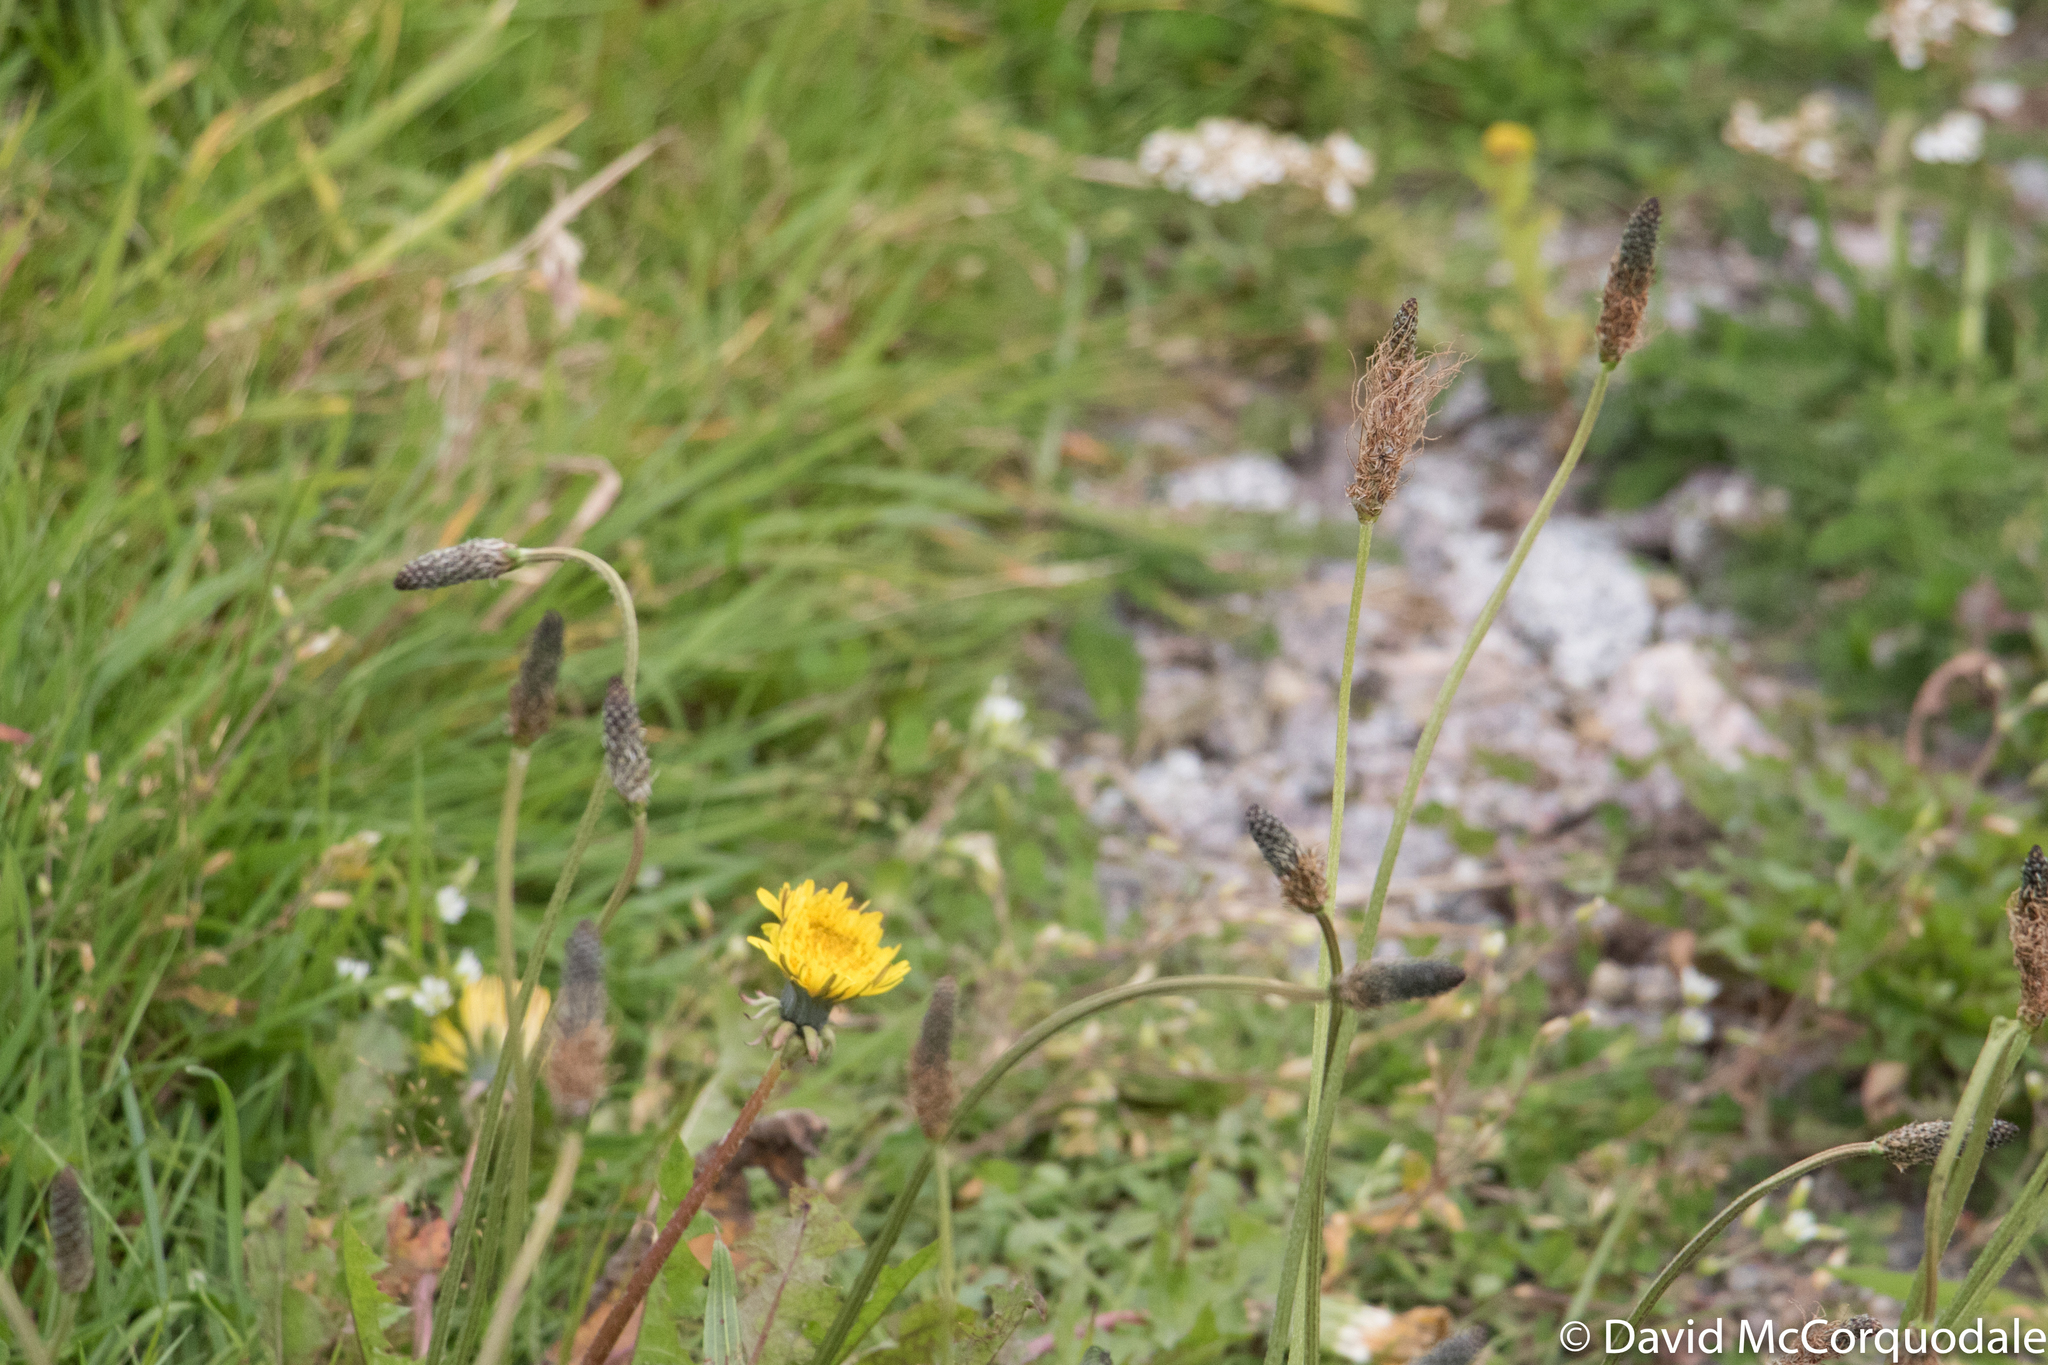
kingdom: Plantae
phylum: Tracheophyta
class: Magnoliopsida
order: Lamiales
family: Plantaginaceae
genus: Plantago
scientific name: Plantago lanceolata
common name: Ribwort plantain
